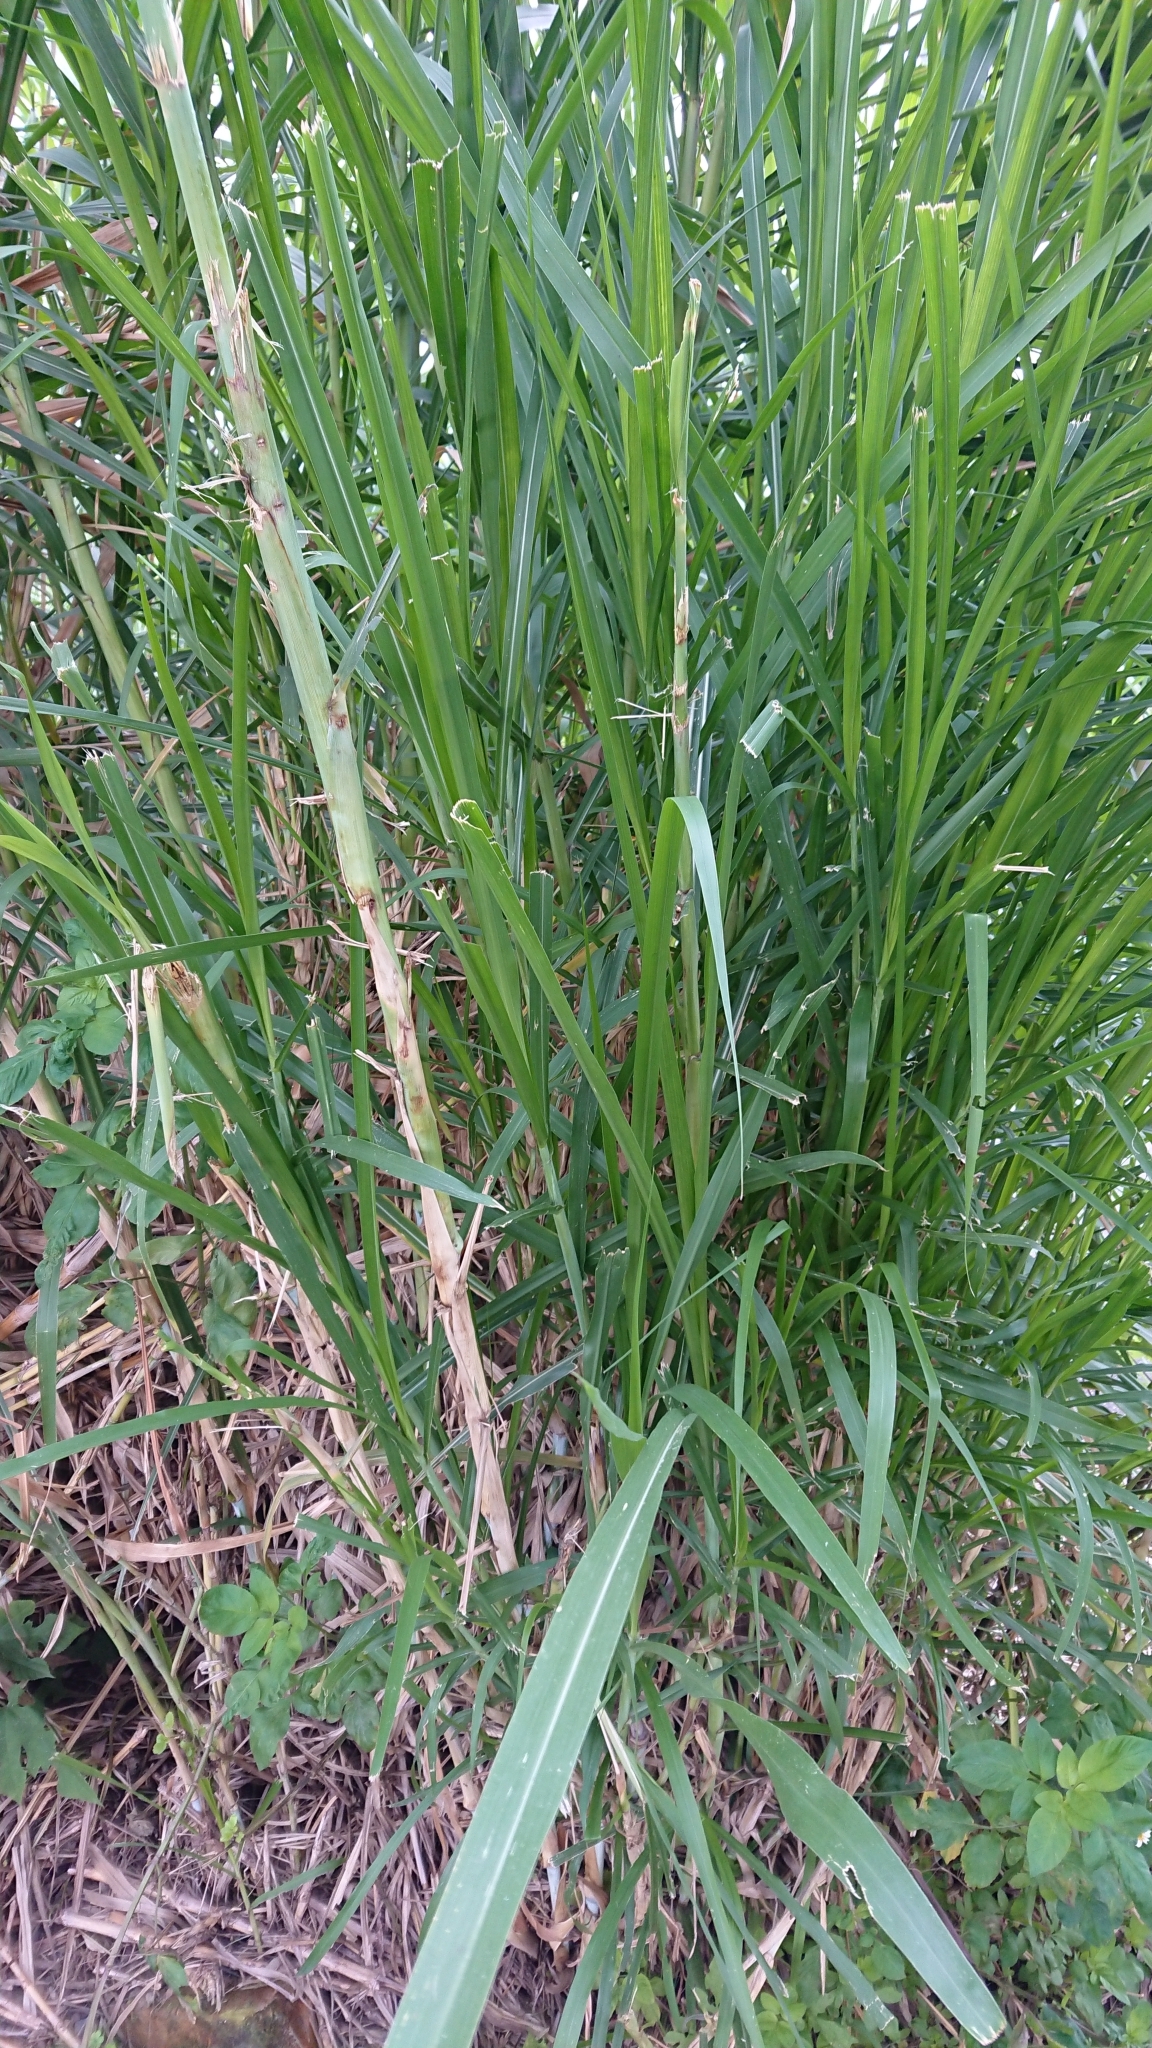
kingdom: Plantae
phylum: Tracheophyta
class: Liliopsida
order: Poales
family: Poaceae
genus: Cenchrus
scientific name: Cenchrus purpureus
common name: Elephant grass
